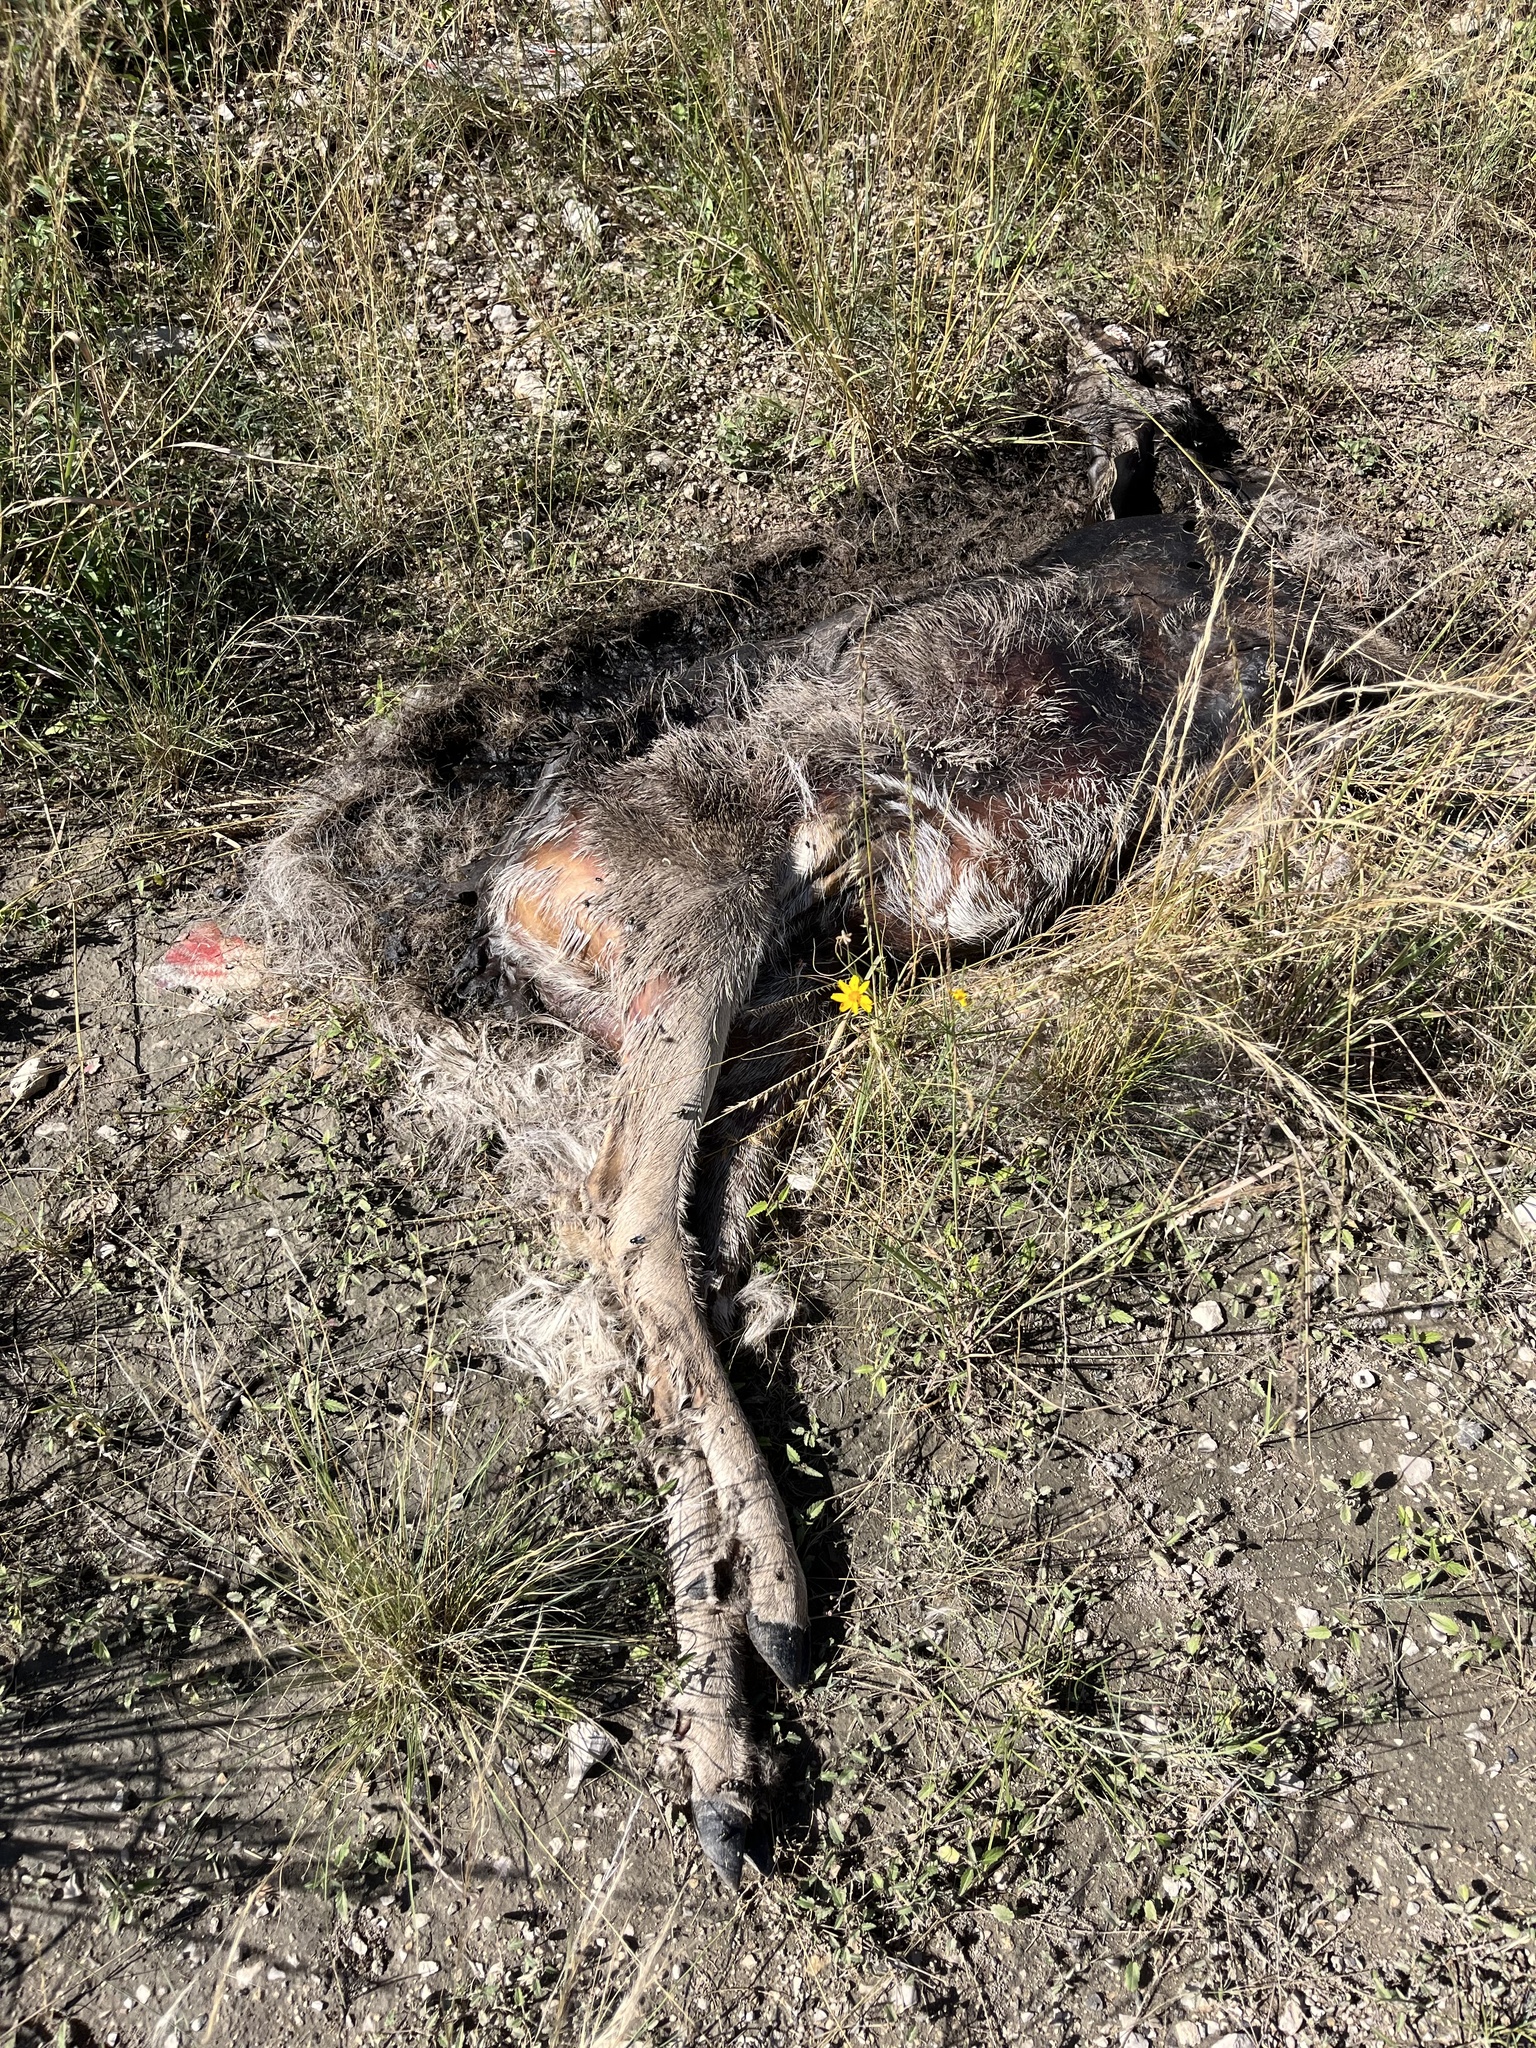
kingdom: Animalia
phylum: Chordata
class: Mammalia
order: Artiodactyla
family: Cervidae
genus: Odocoileus
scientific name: Odocoileus virginianus
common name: White-tailed deer
